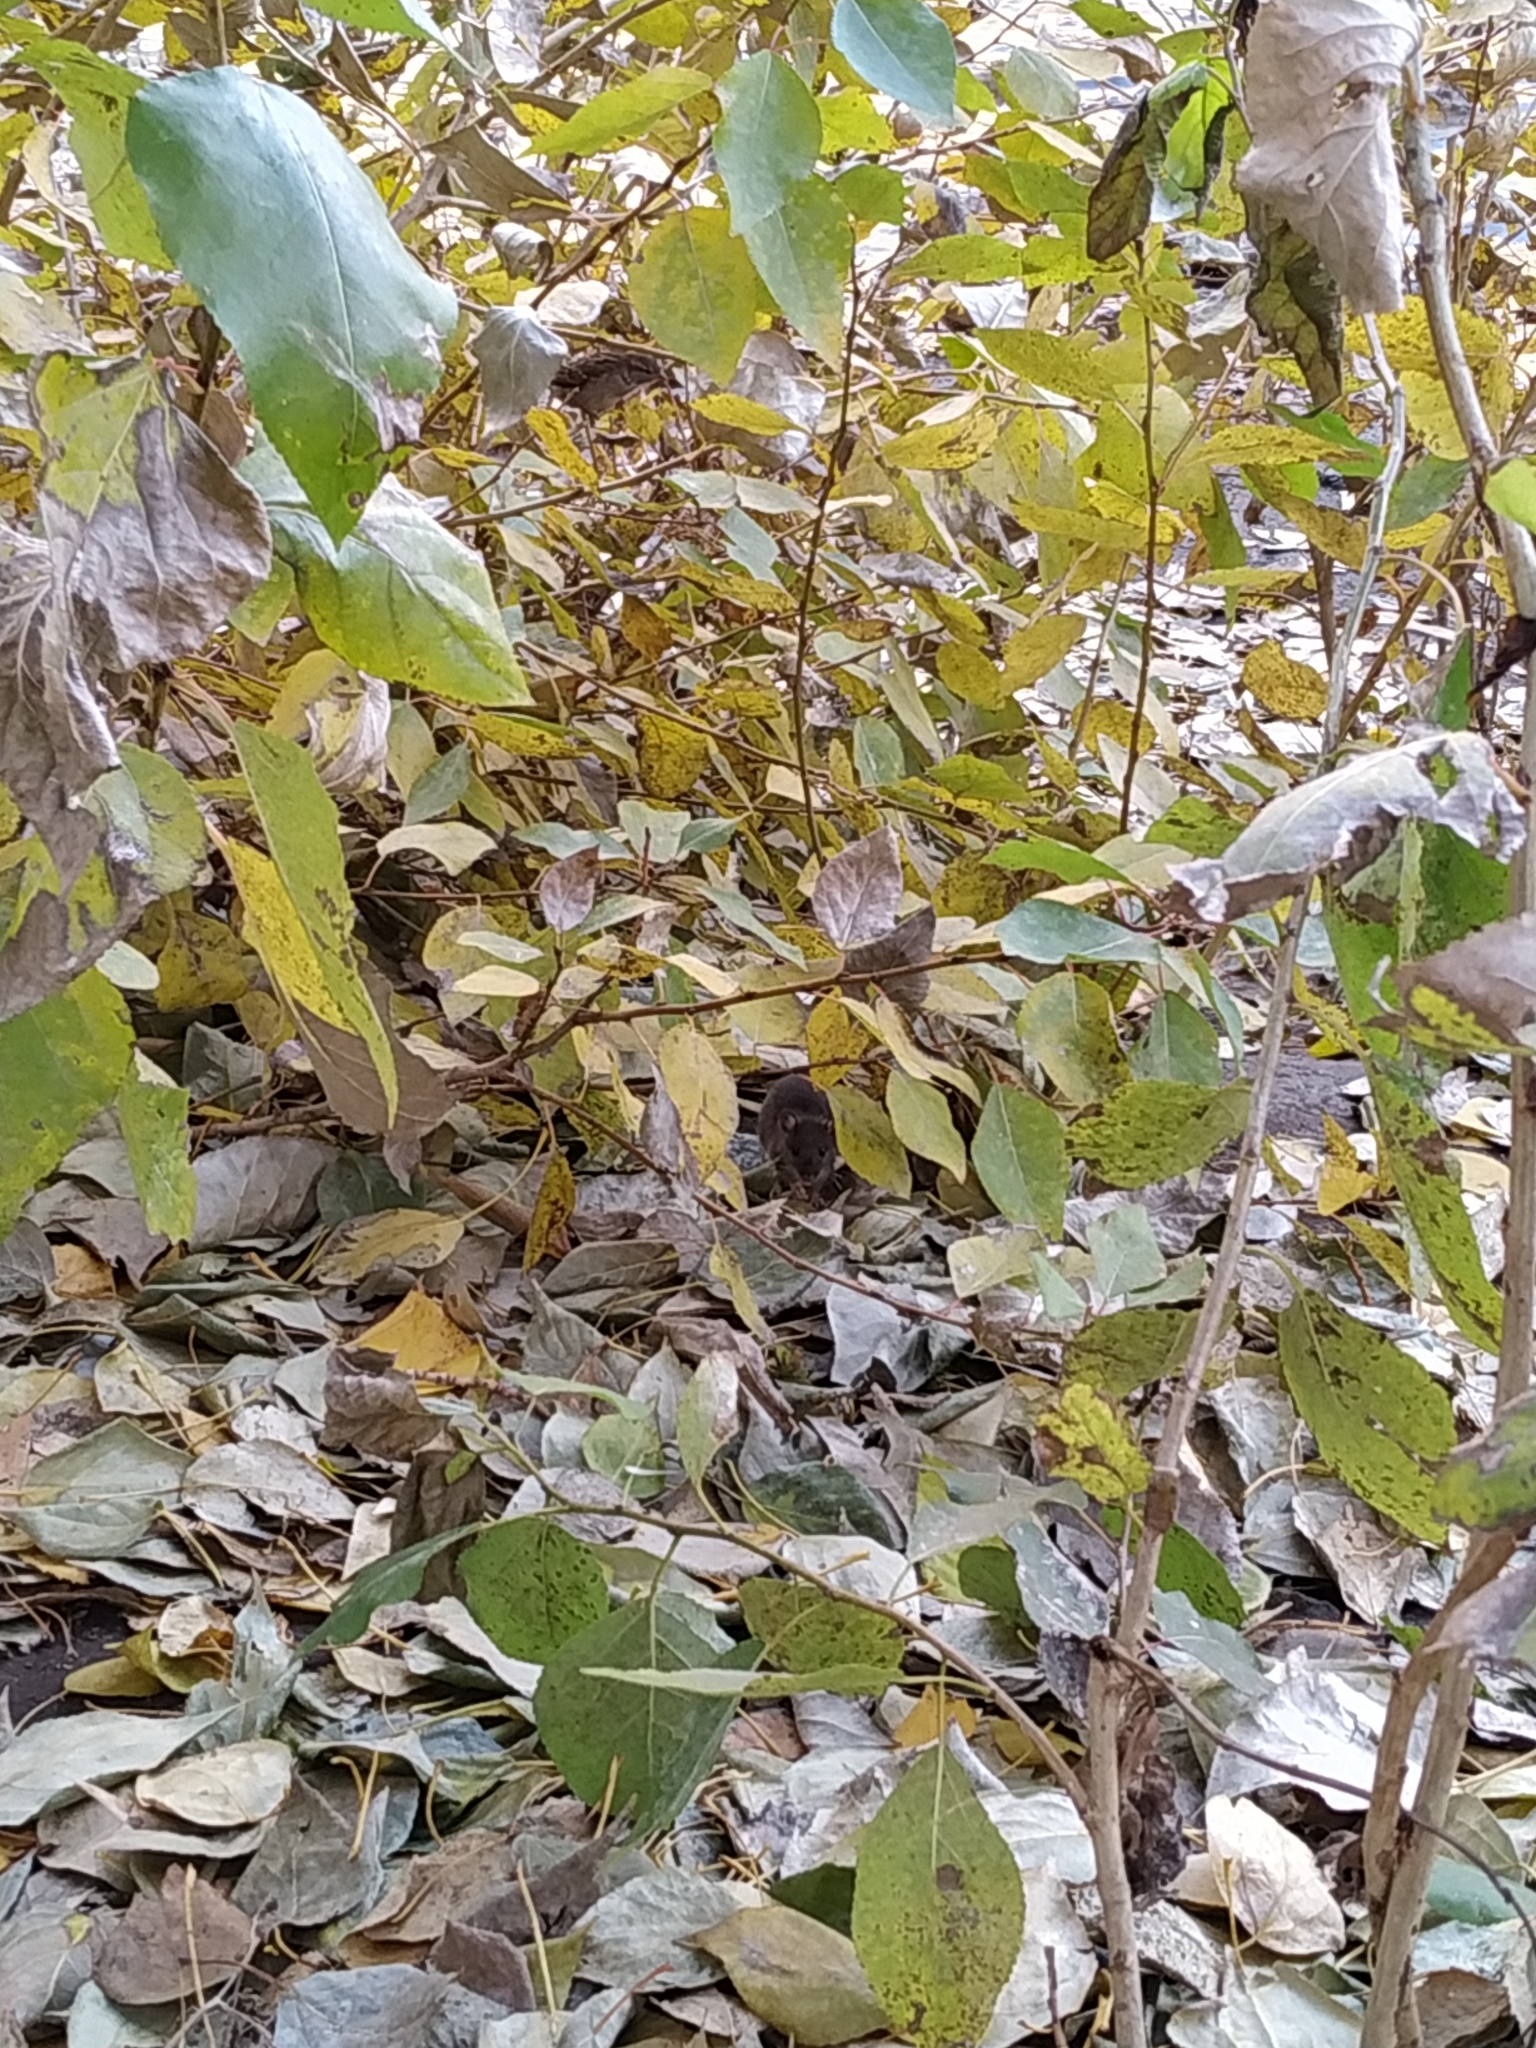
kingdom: Animalia
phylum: Chordata
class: Mammalia
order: Rodentia
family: Muridae
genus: Rattus
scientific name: Rattus norvegicus
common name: Brown rat
